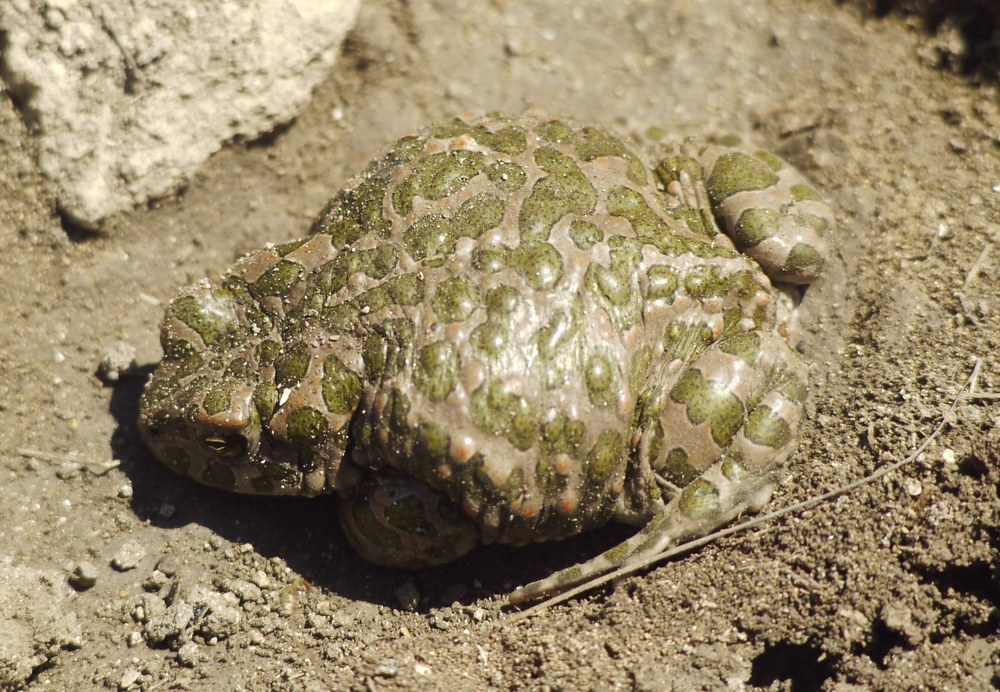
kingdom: Animalia
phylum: Chordata
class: Amphibia
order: Anura
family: Bufonidae
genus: Bufotes
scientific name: Bufotes viridis
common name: European green toad
